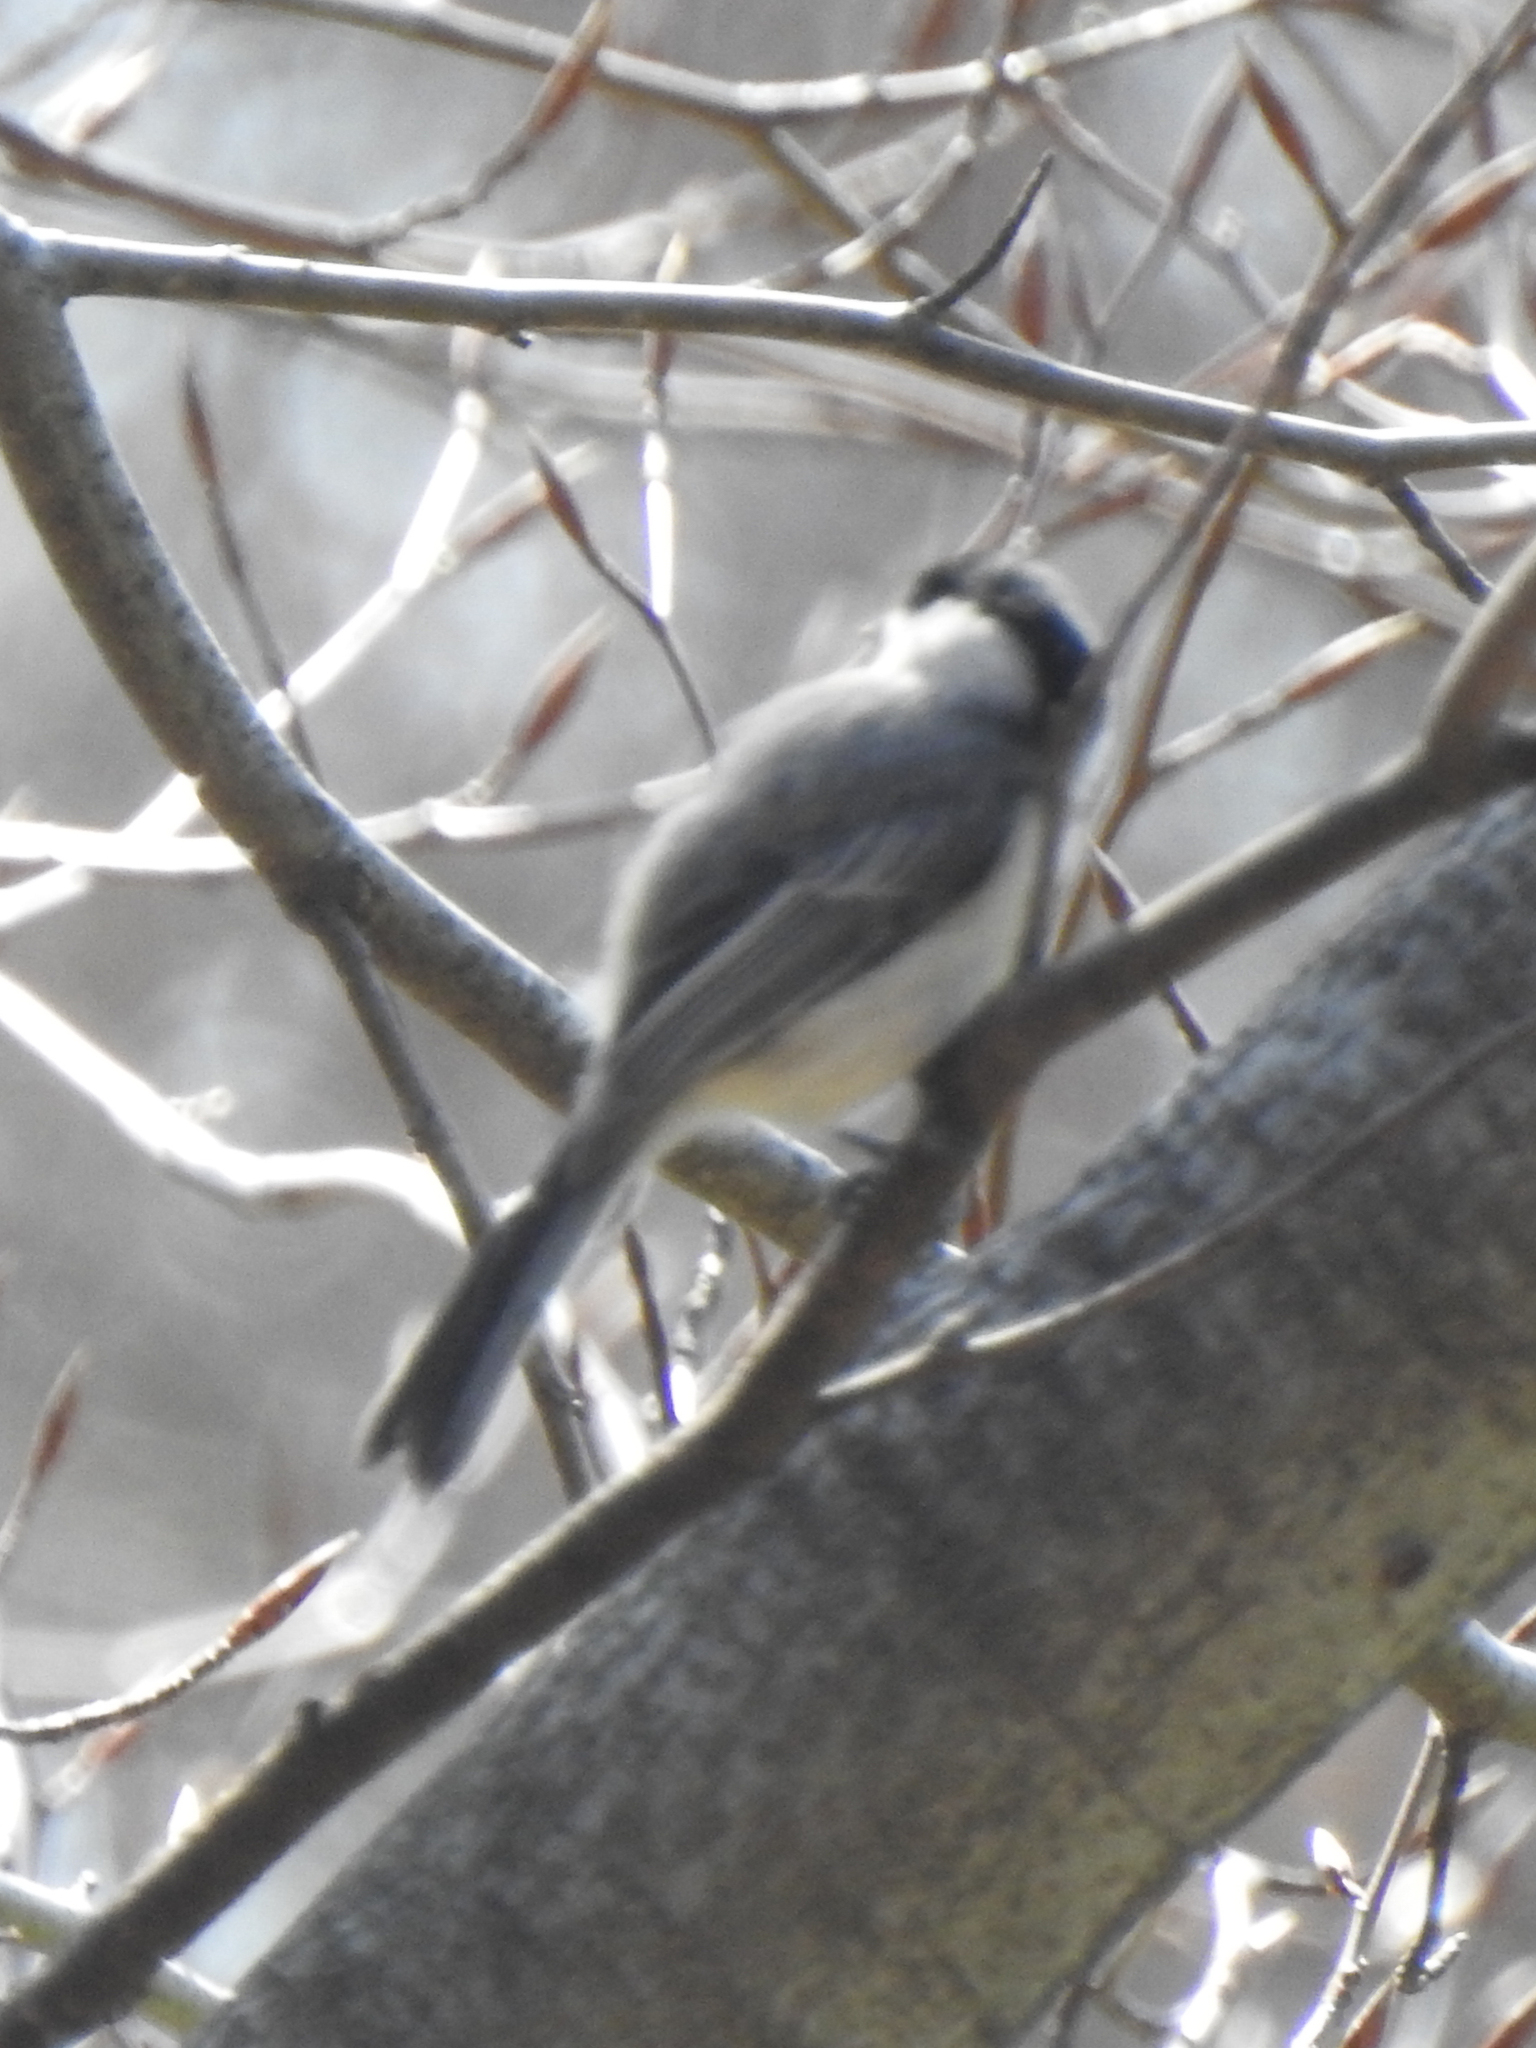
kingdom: Animalia
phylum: Chordata
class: Aves
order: Passeriformes
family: Paridae
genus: Poecile
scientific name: Poecile atricapillus
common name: Black-capped chickadee
